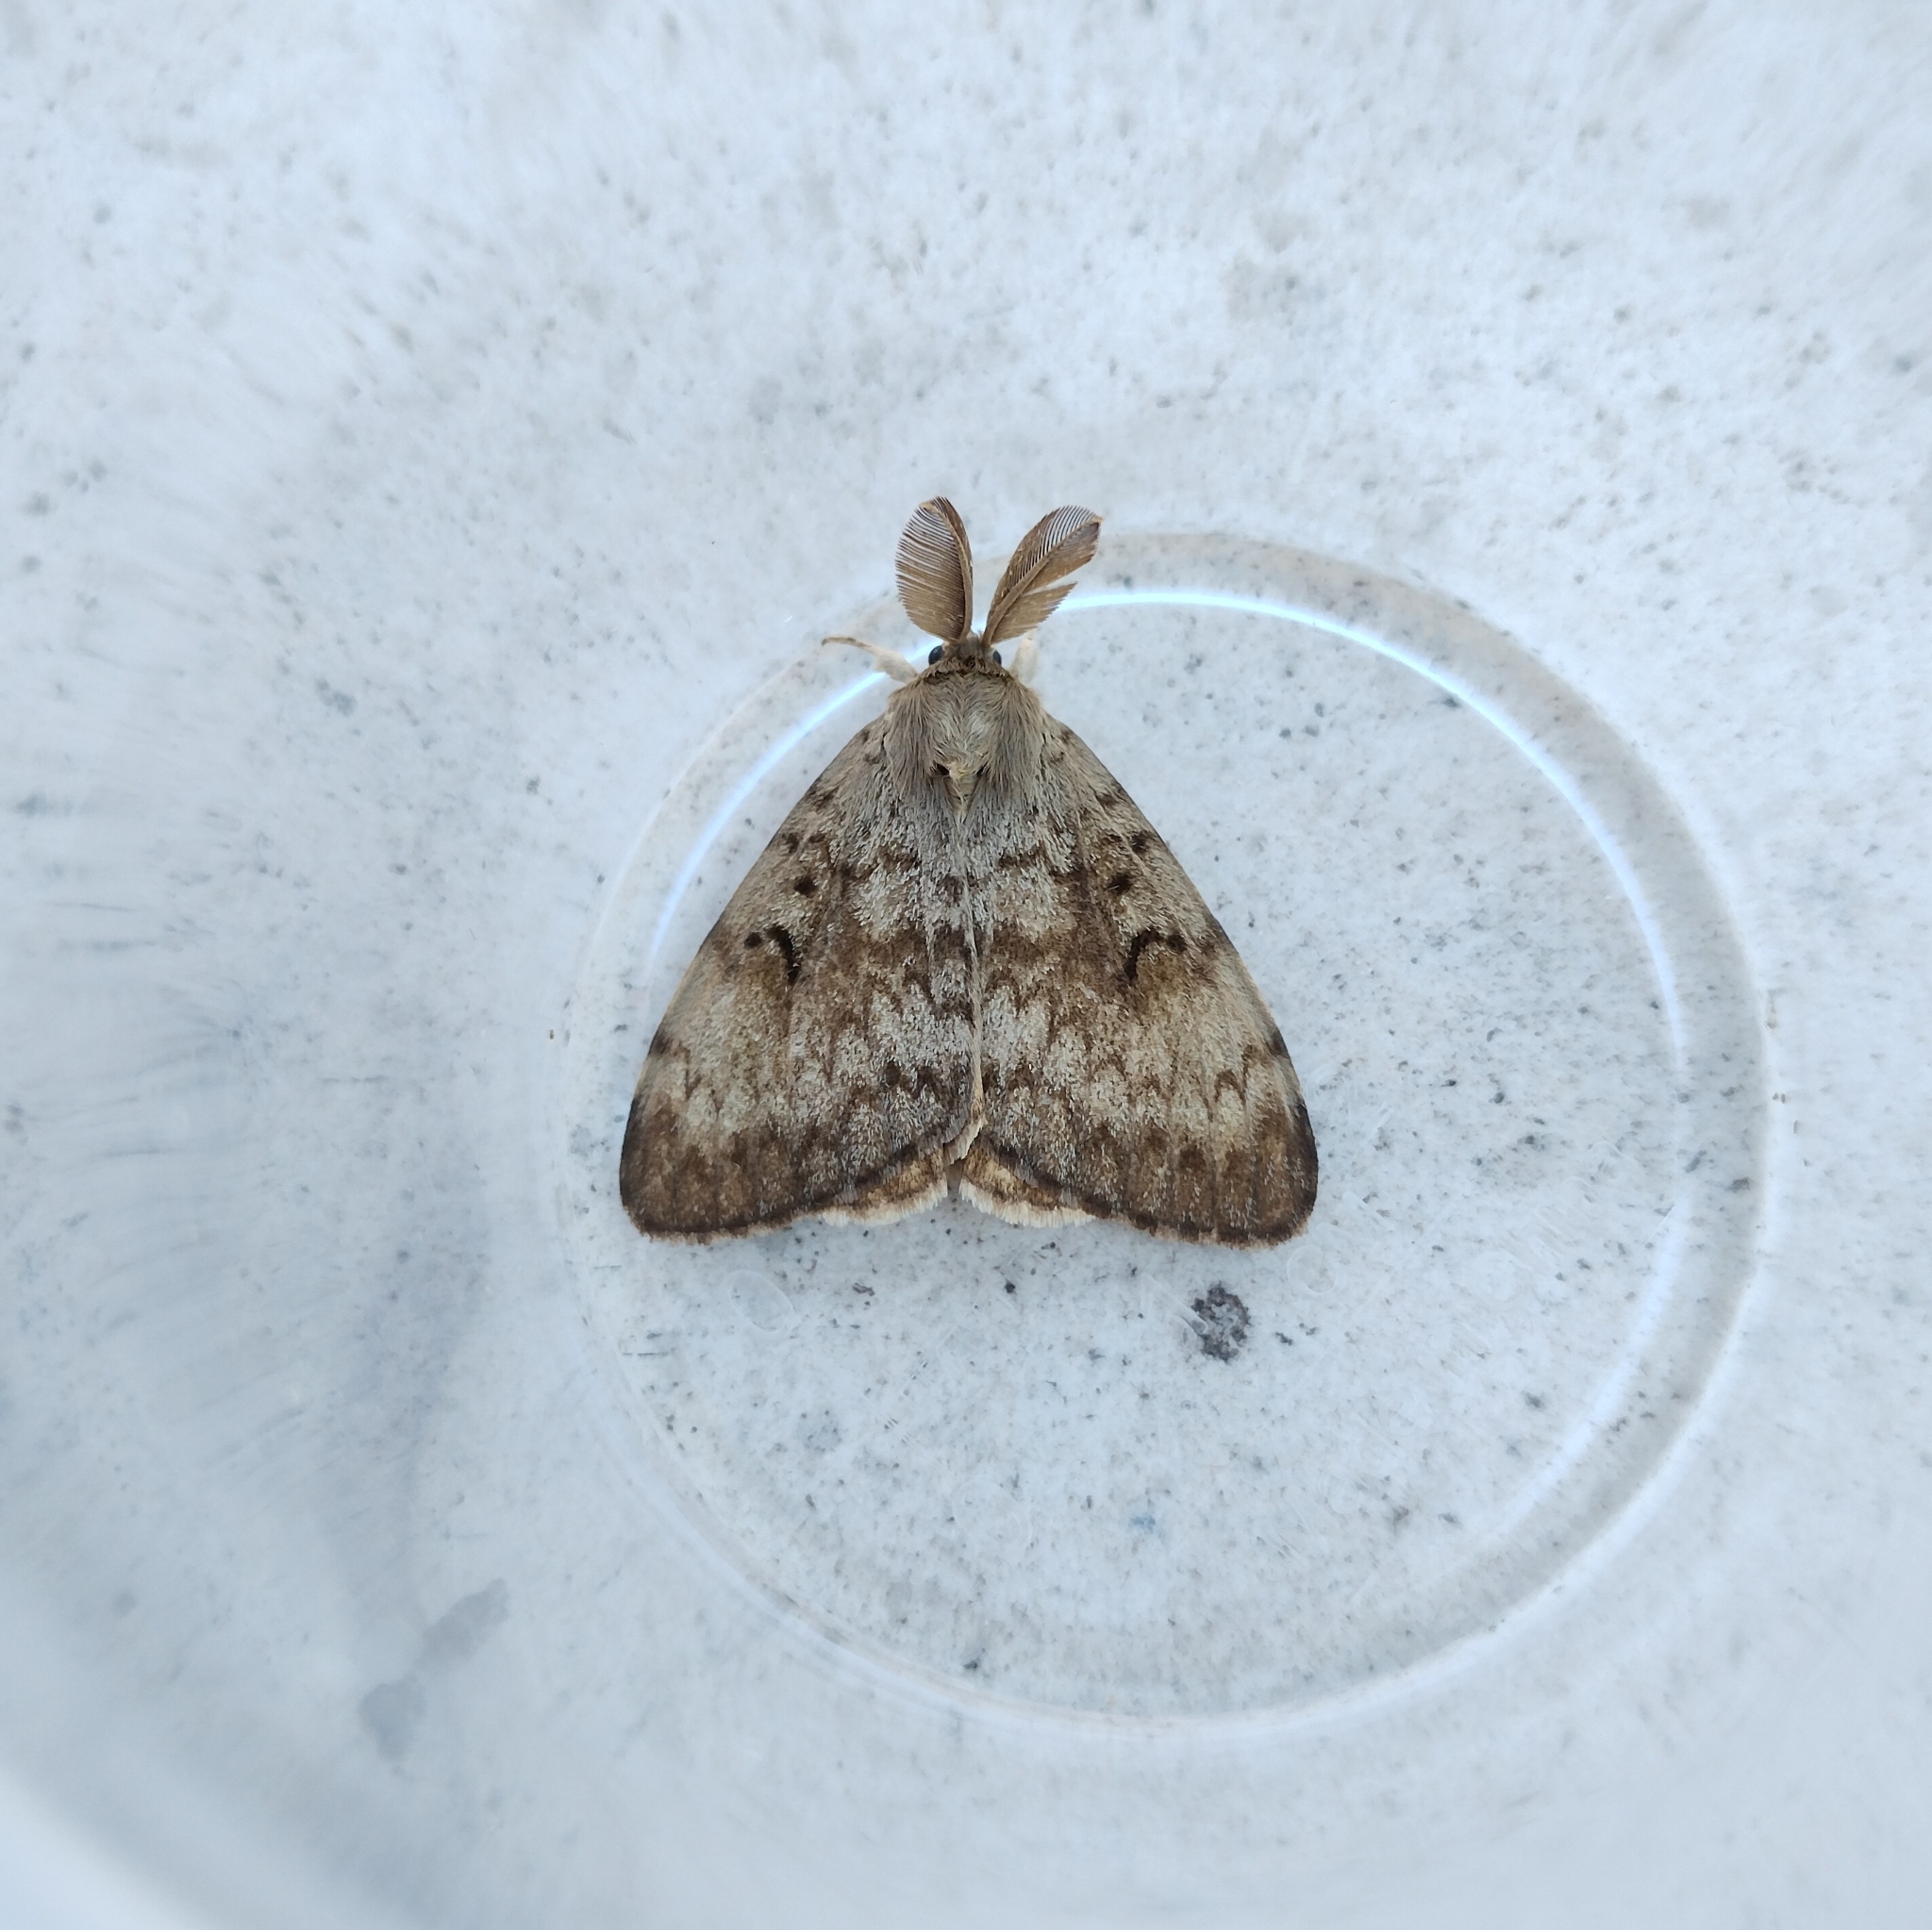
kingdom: Animalia
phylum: Arthropoda
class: Insecta
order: Lepidoptera
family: Erebidae
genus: Lymantria
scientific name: Lymantria dispar
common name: Gypsy moth
